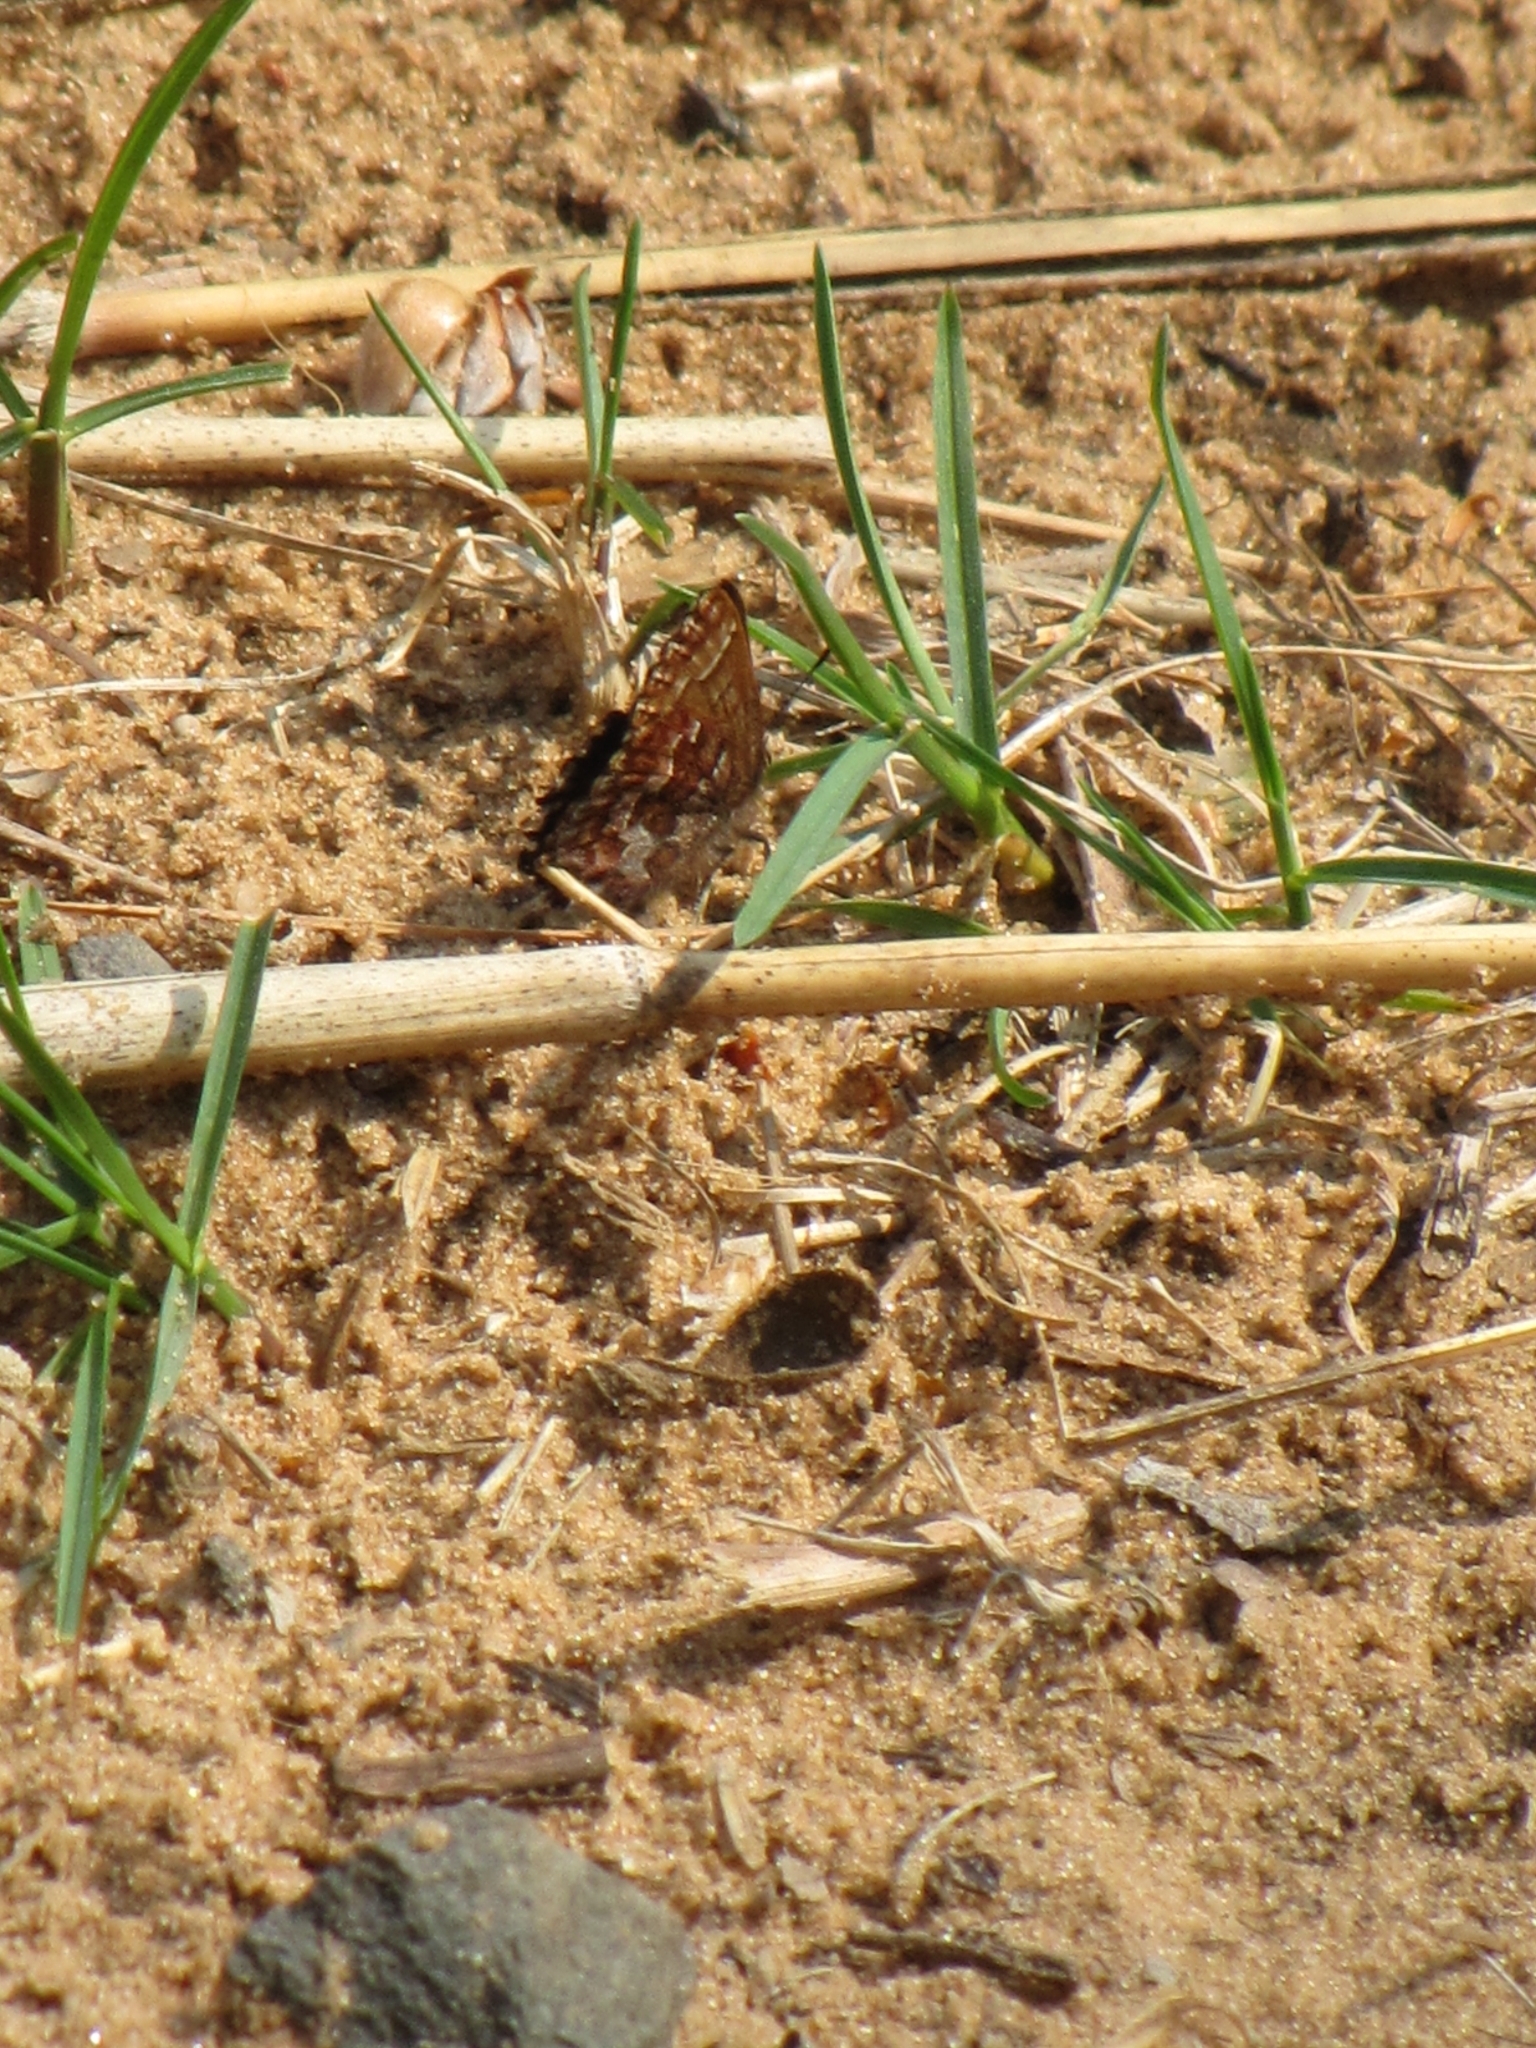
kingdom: Animalia
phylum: Arthropoda
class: Insecta
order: Lepidoptera
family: Lycaenidae
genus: Incisalia
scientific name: Incisalia niphon
